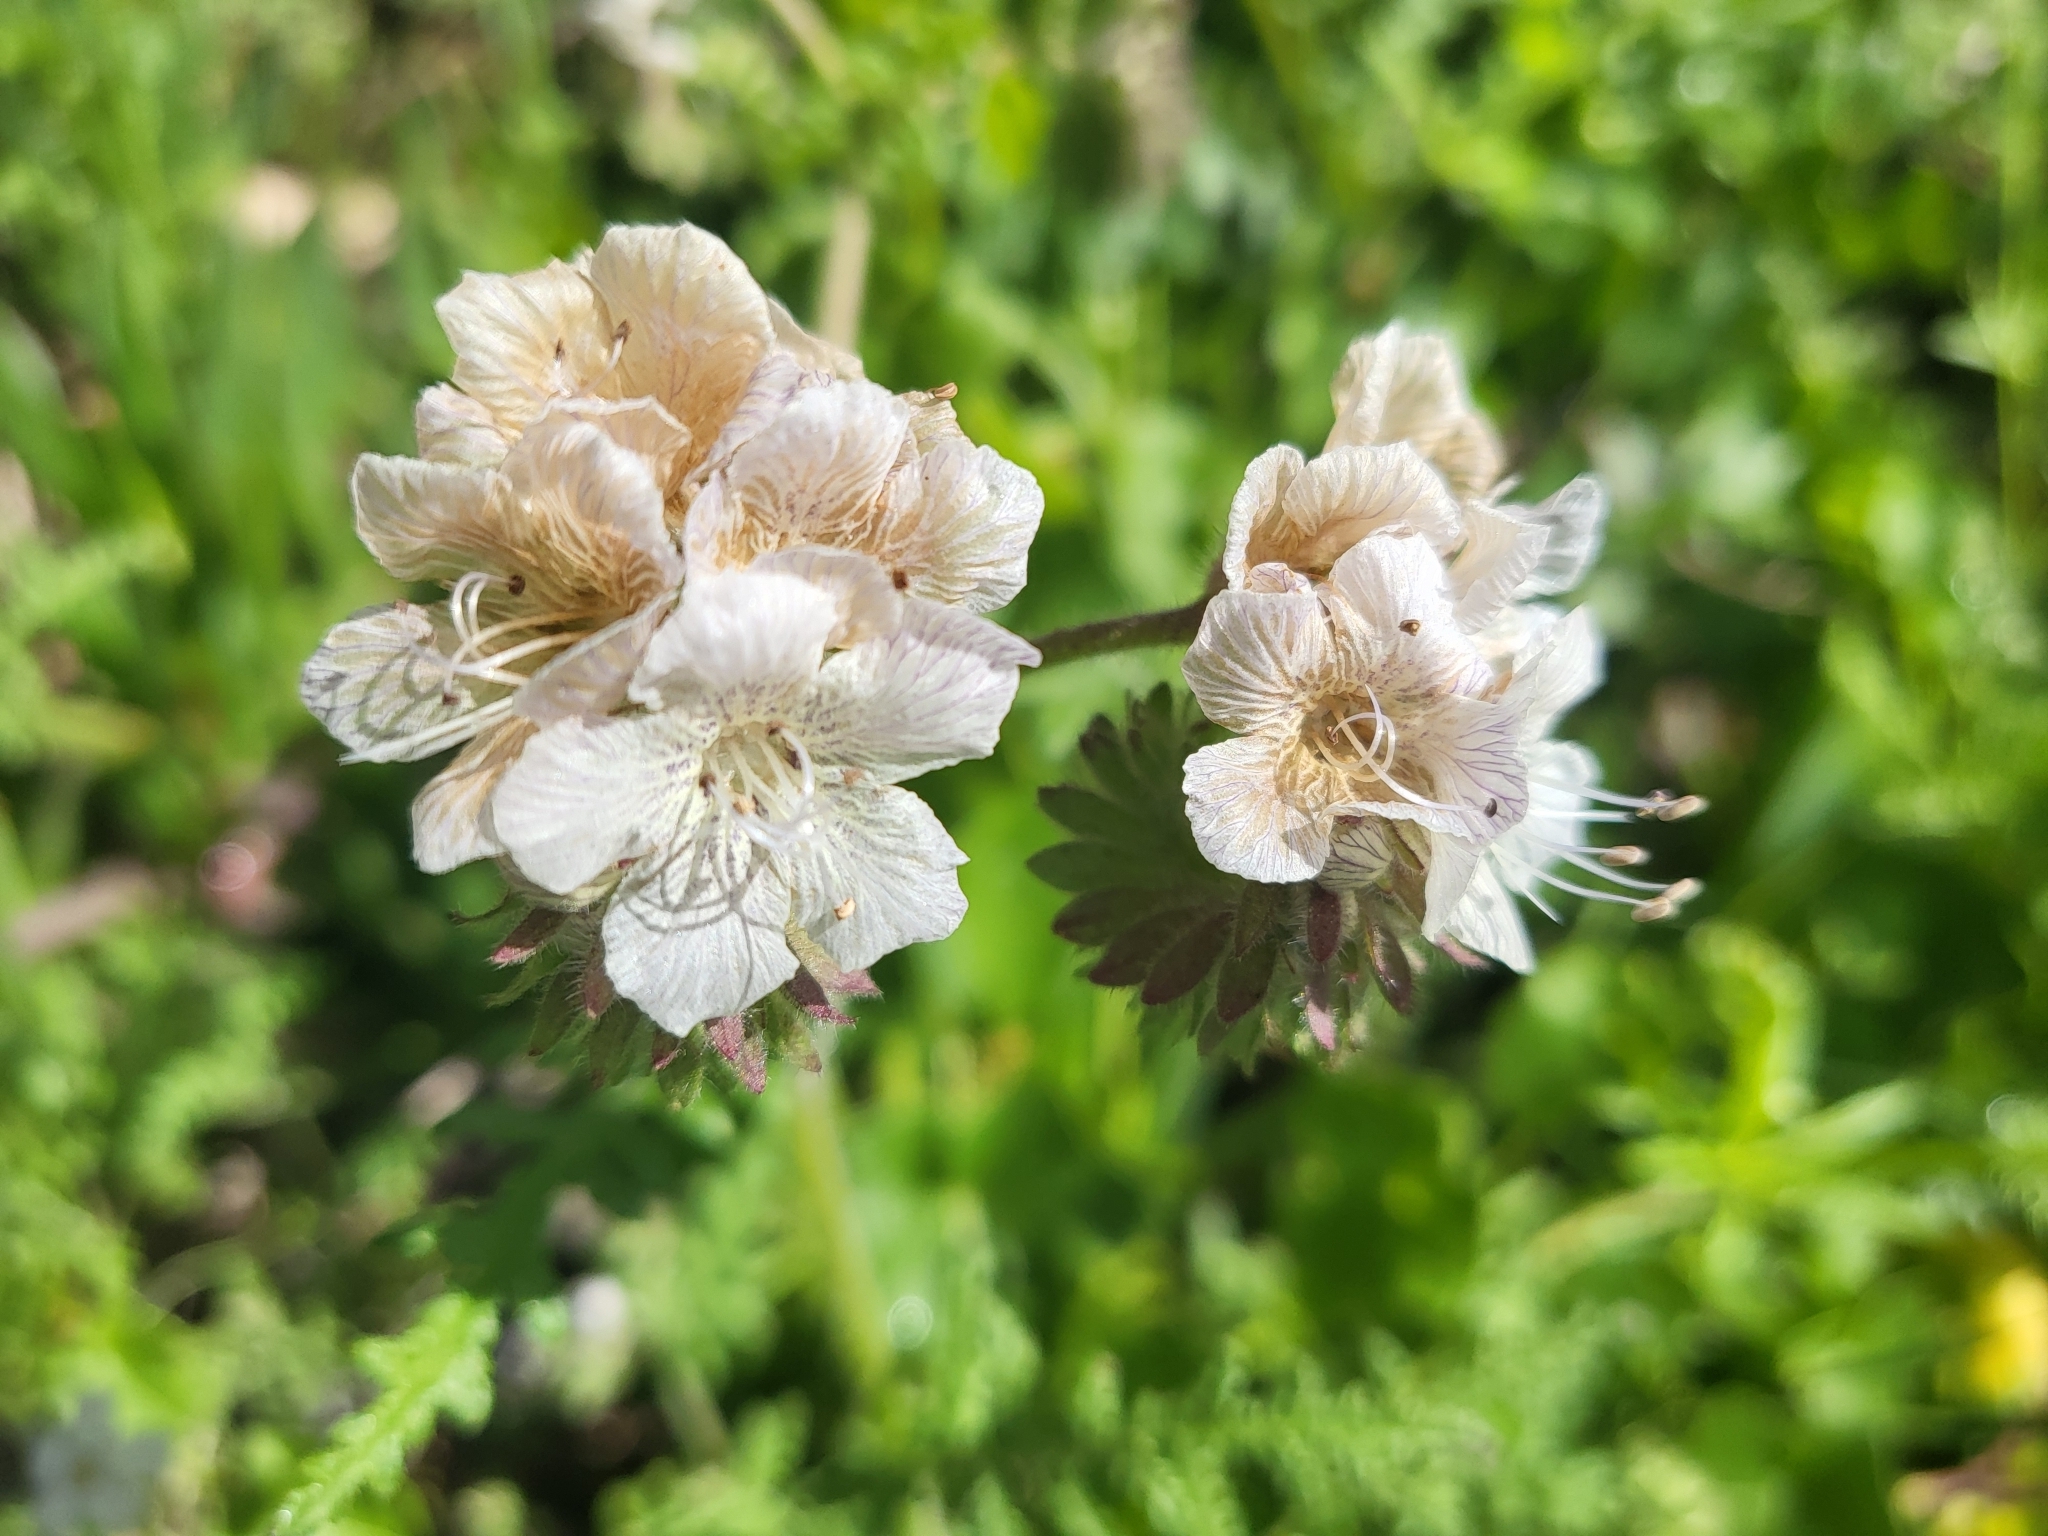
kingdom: Plantae
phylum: Tracheophyta
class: Magnoliopsida
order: Boraginales
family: Hydrophyllaceae
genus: Phacelia
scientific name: Phacelia distans
